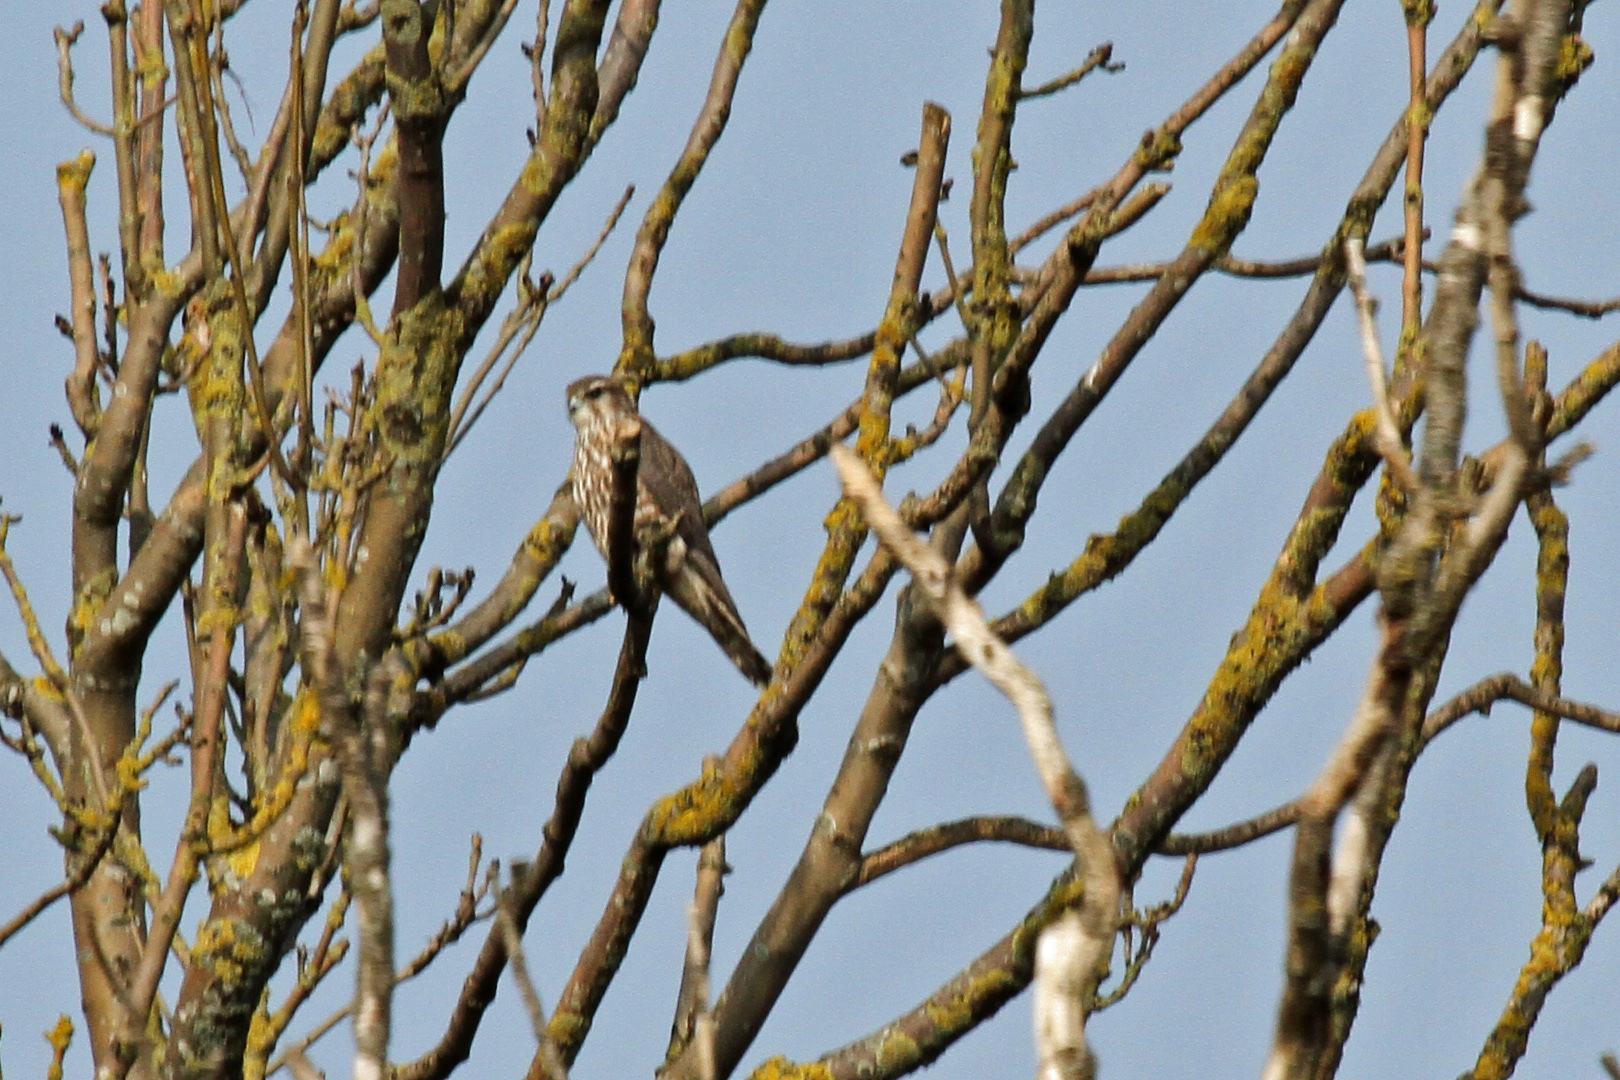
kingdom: Animalia
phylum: Chordata
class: Aves
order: Falconiformes
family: Falconidae
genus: Falco
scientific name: Falco columbarius
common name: Merlin
